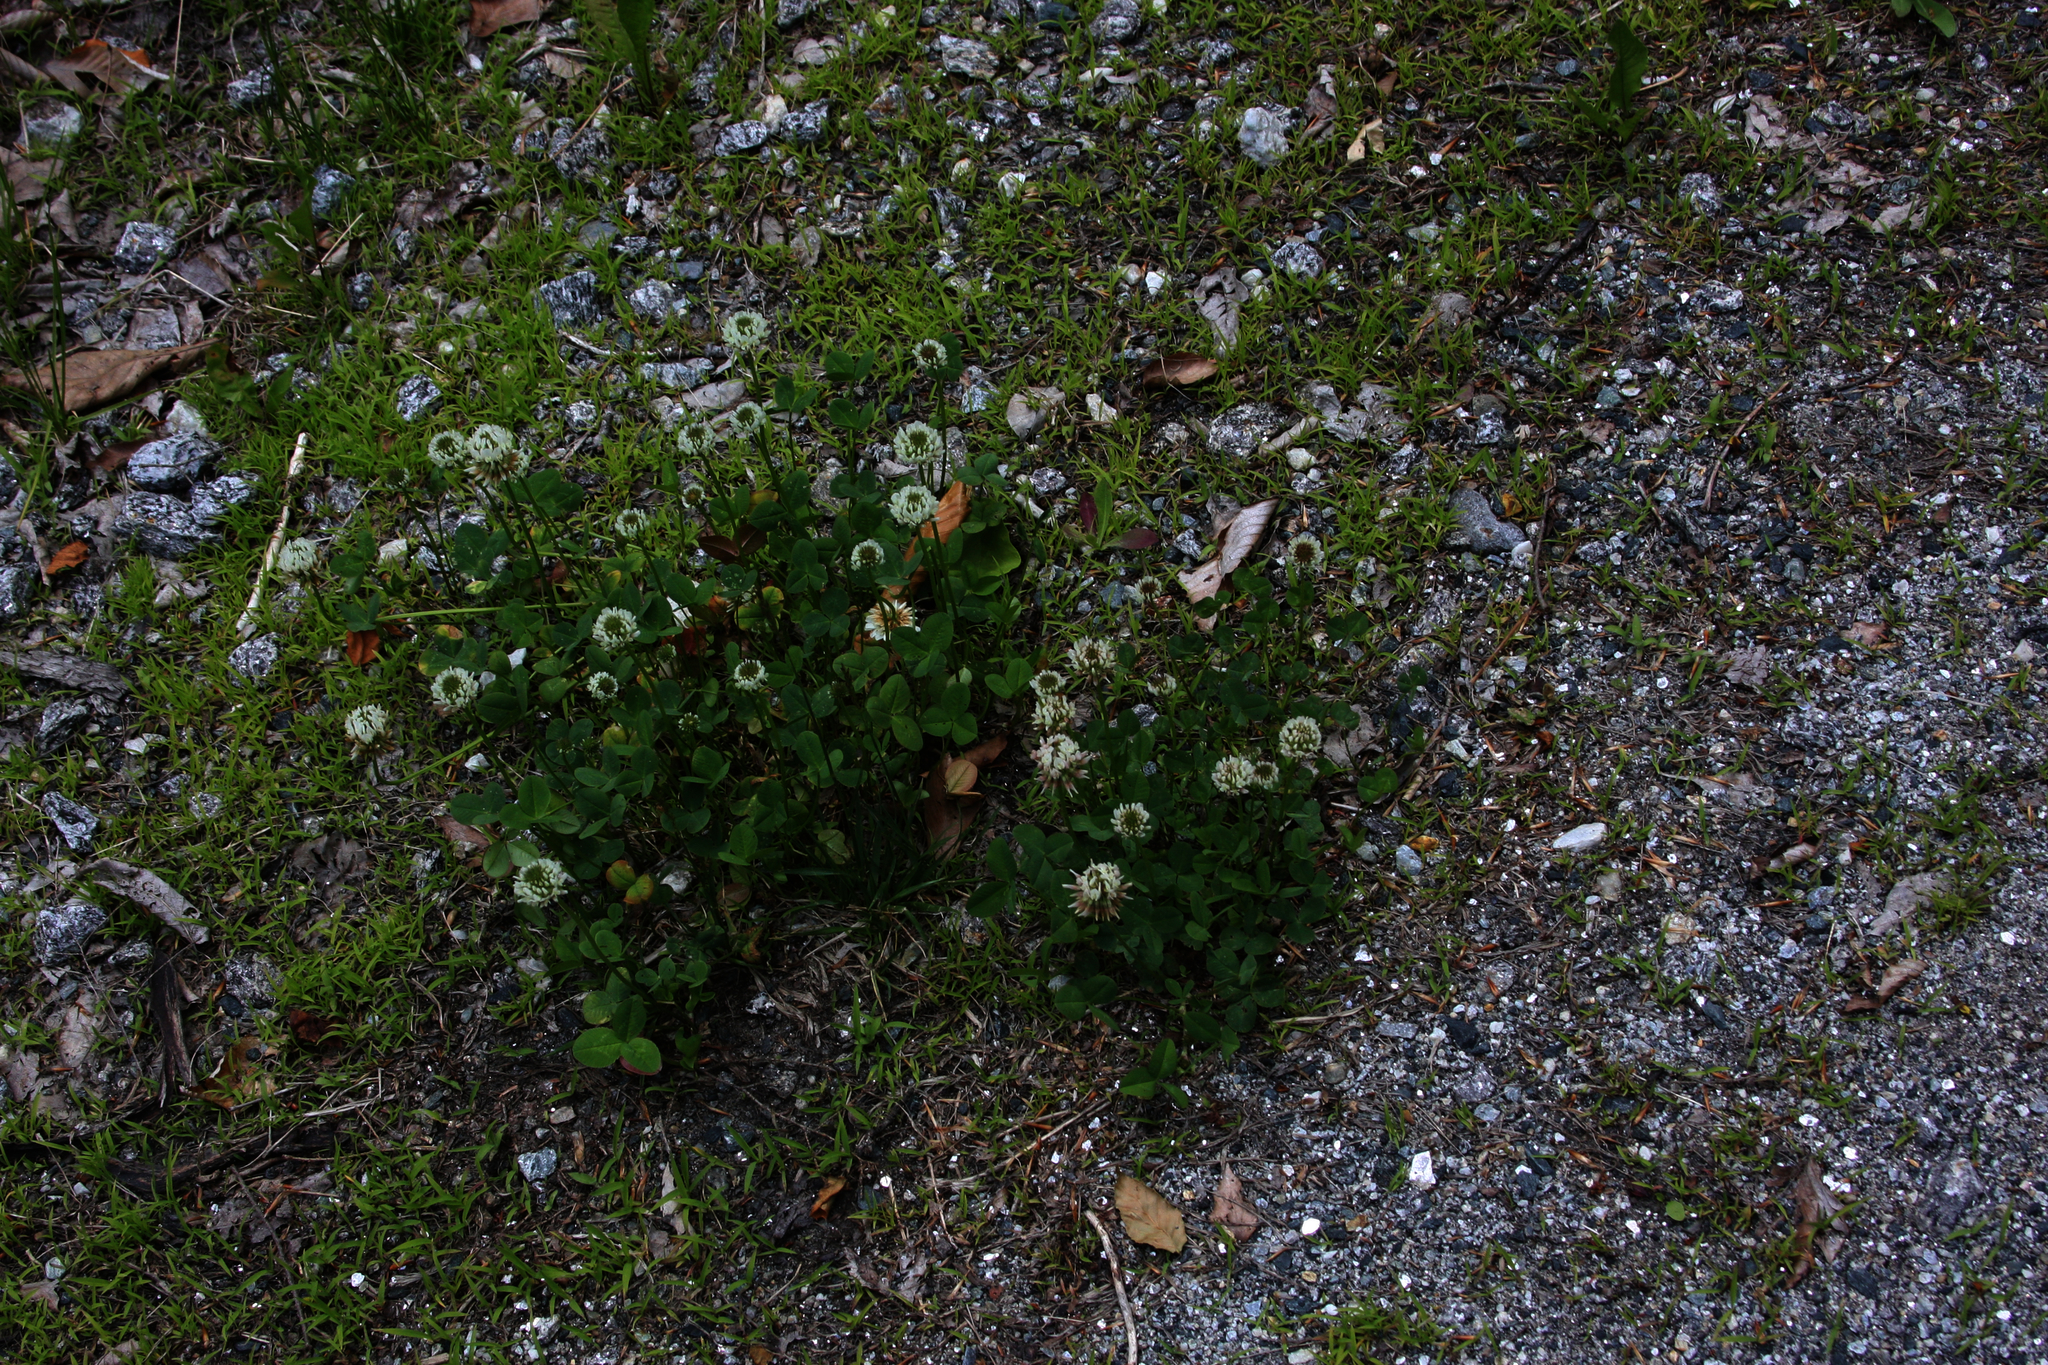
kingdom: Plantae
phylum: Tracheophyta
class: Magnoliopsida
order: Fabales
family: Fabaceae
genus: Trifolium
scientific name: Trifolium repens
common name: White clover
